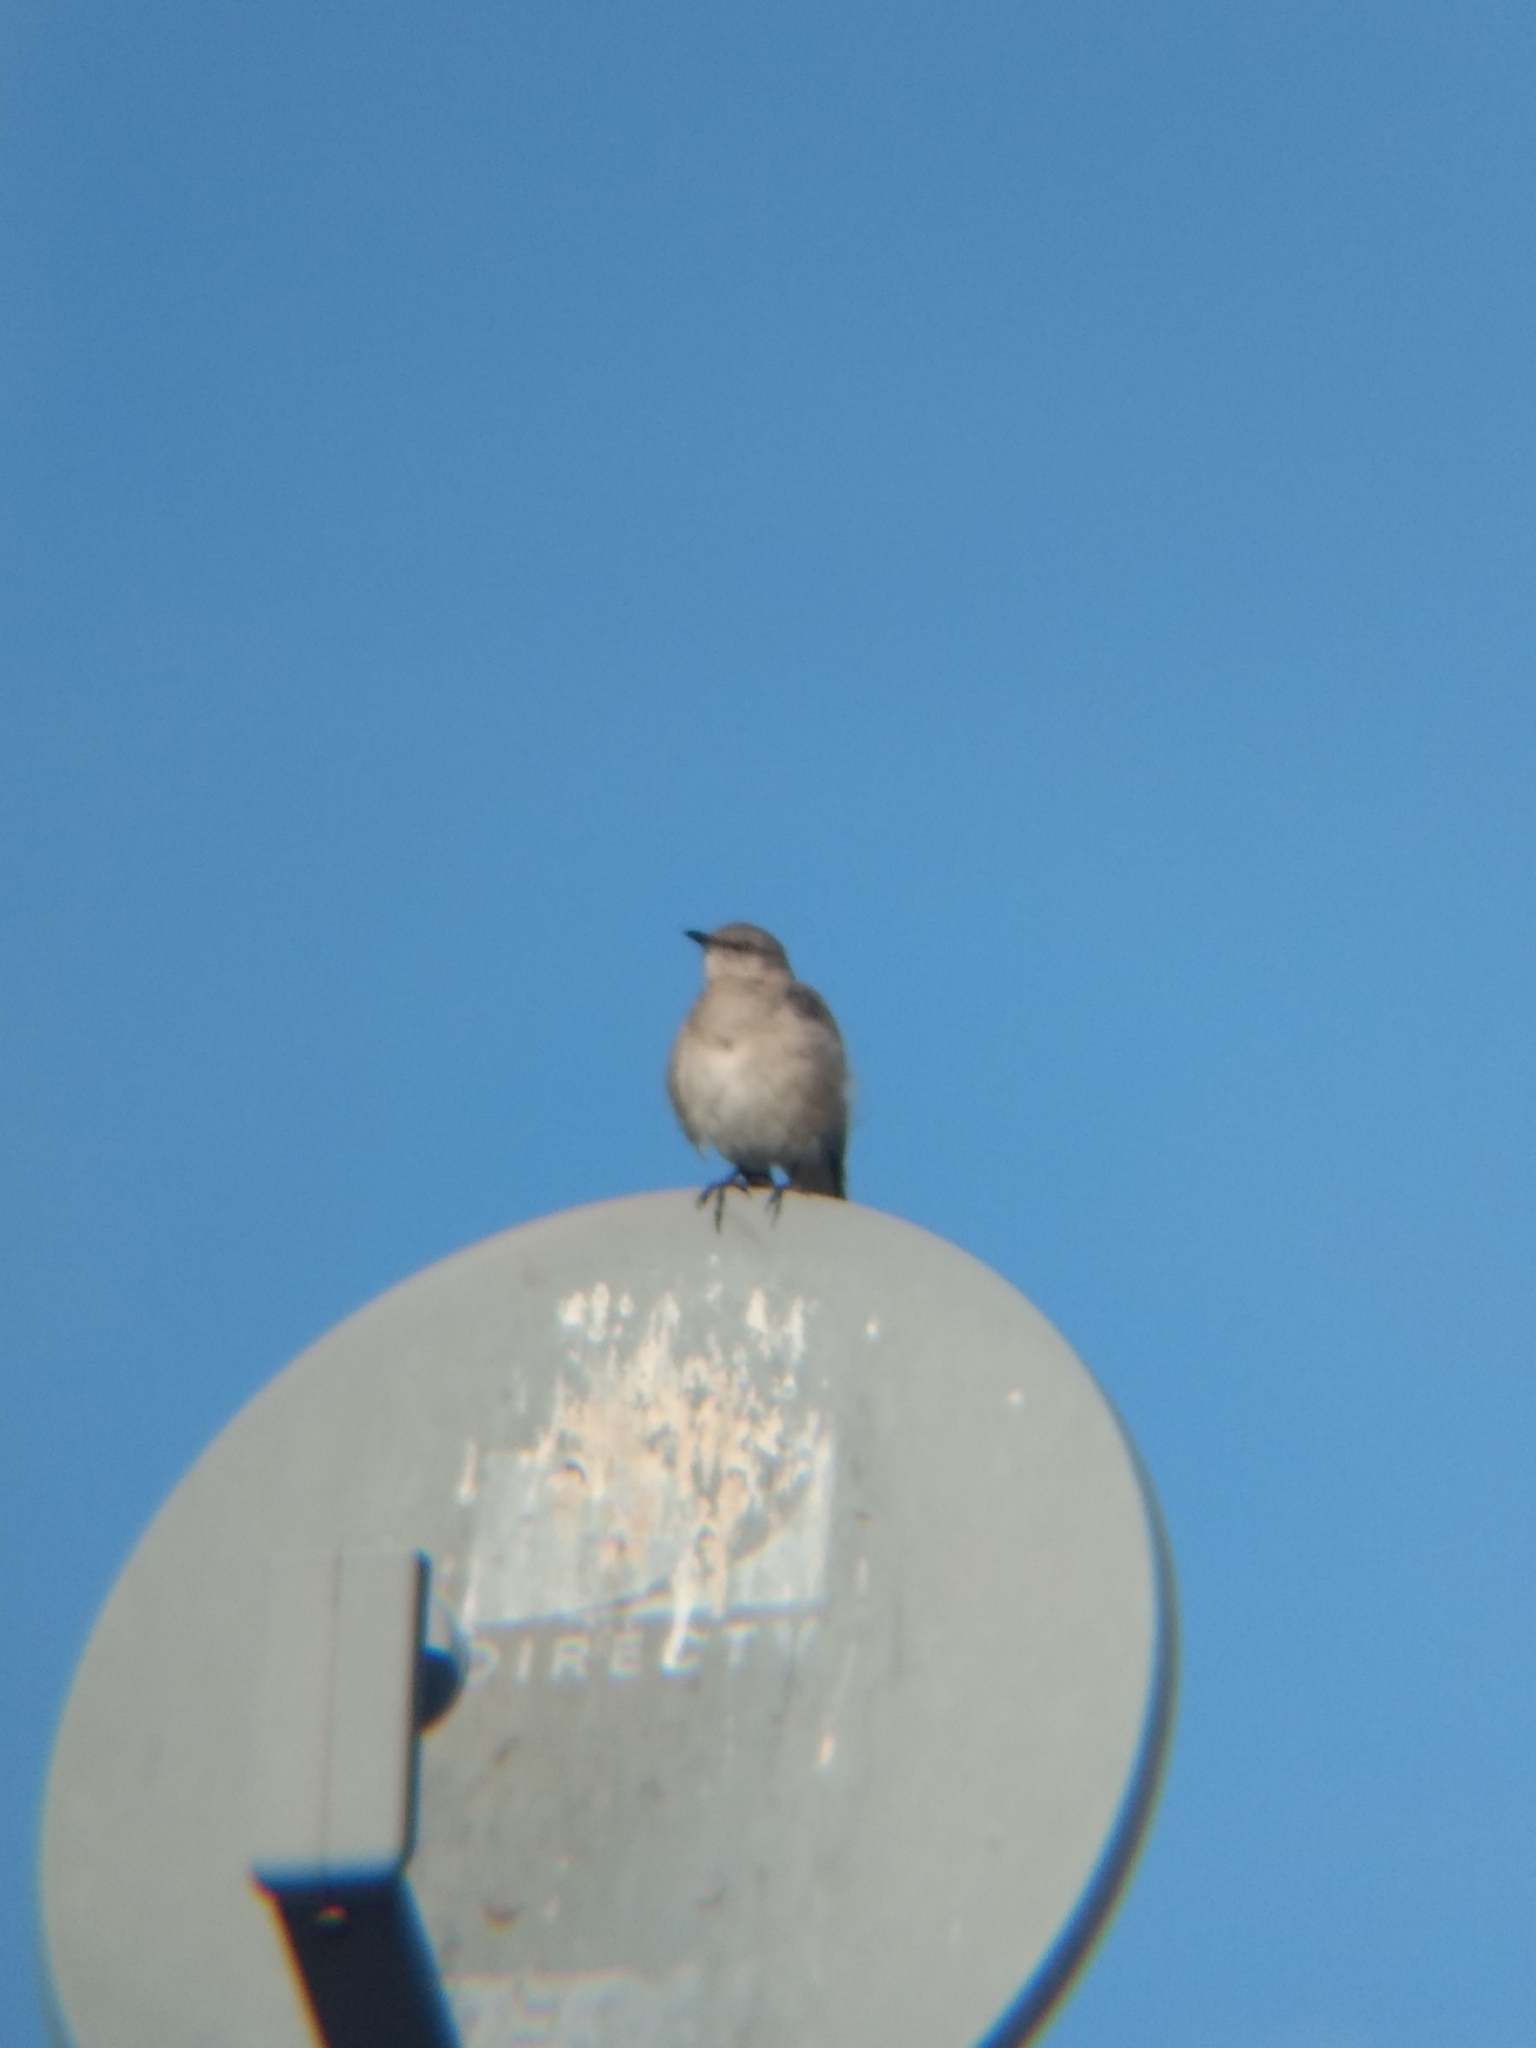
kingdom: Animalia
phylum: Chordata
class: Aves
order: Passeriformes
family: Mimidae
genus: Mimus
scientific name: Mimus polyglottos
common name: Northern mockingbird
